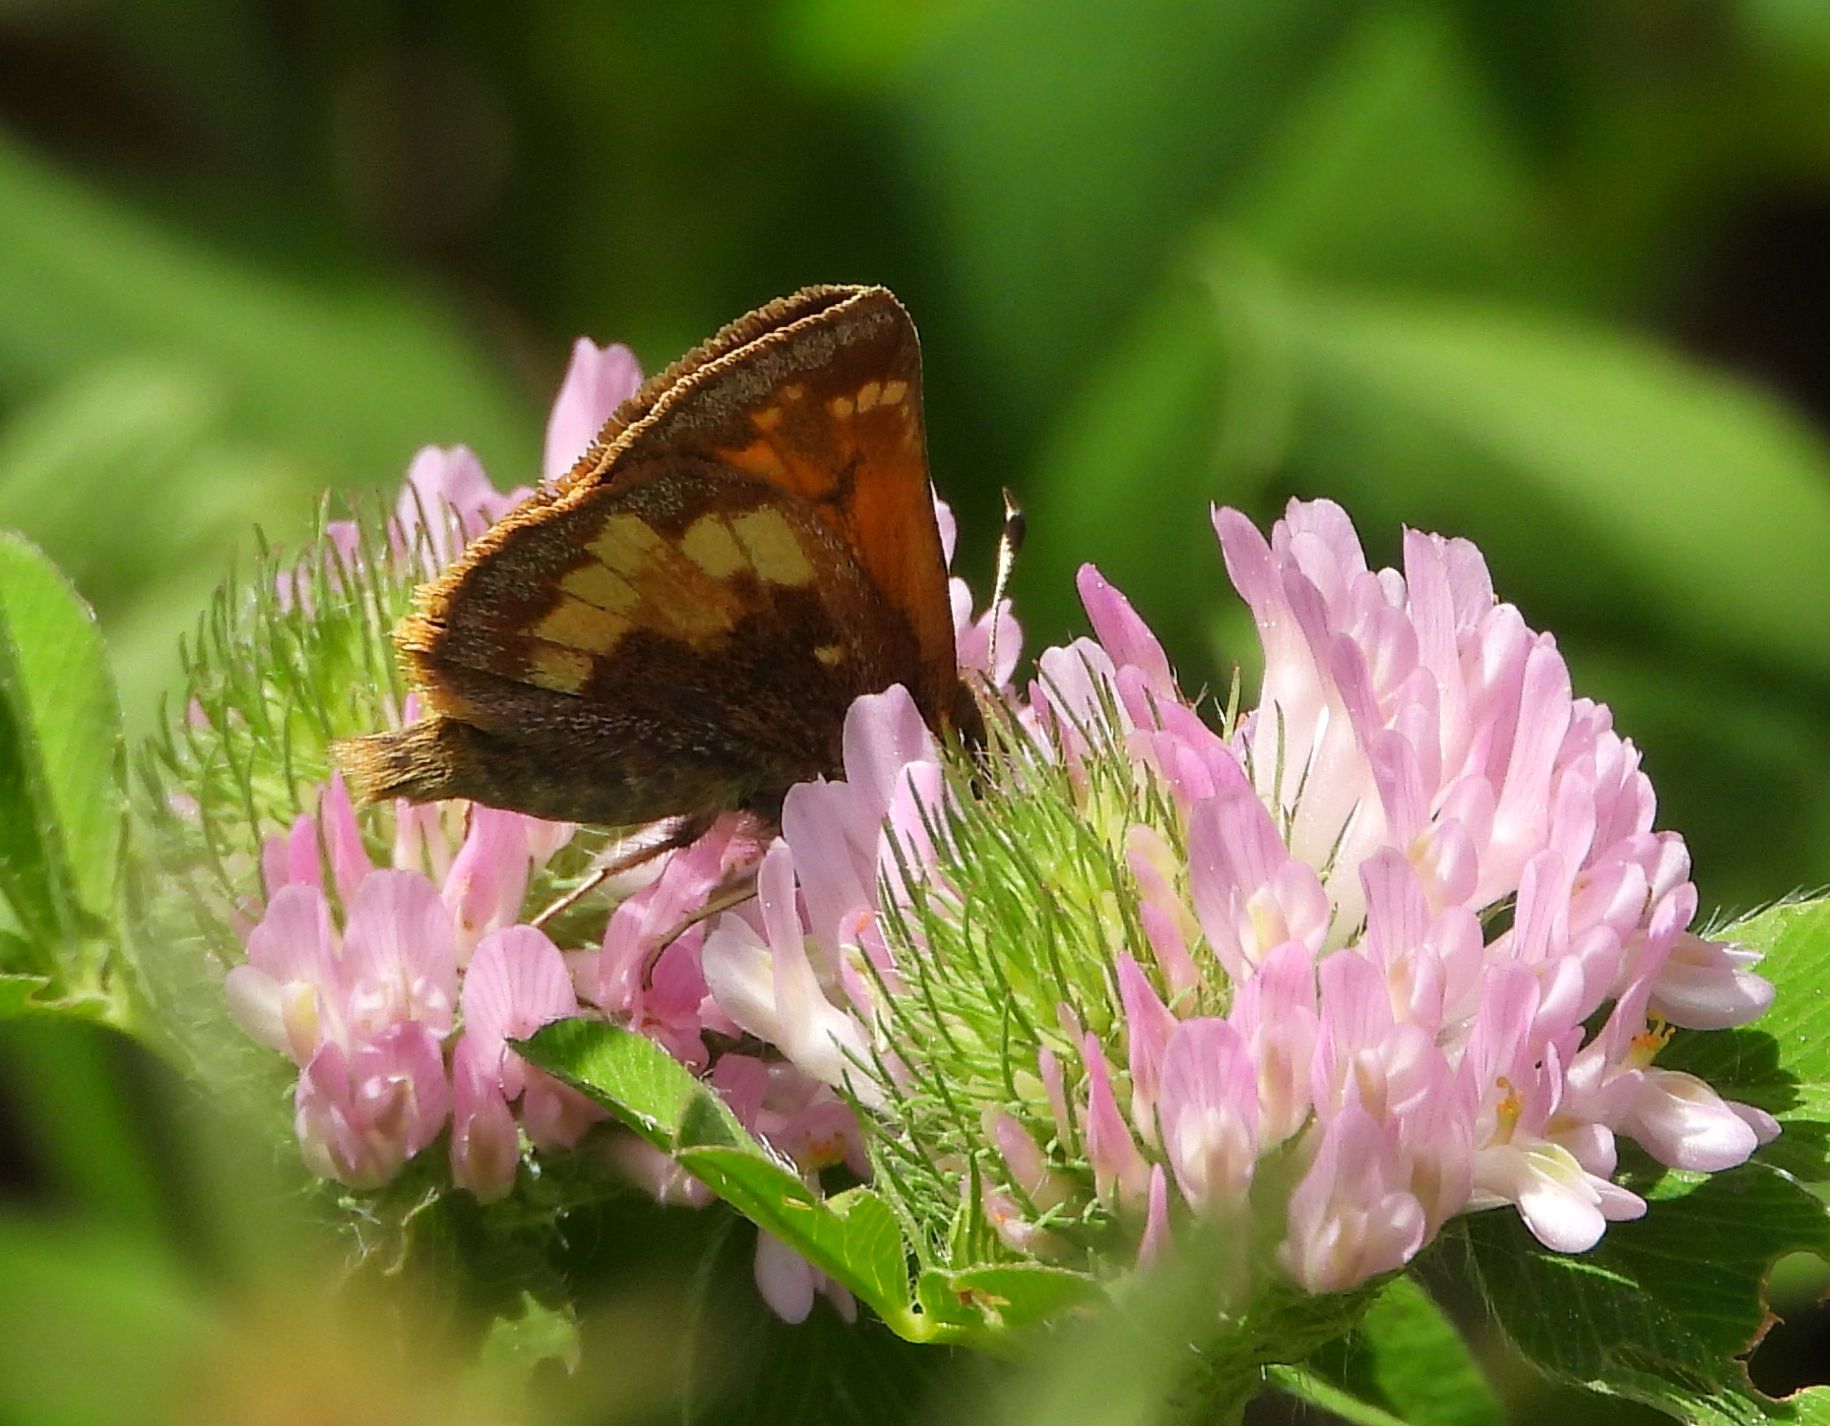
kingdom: Animalia
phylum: Arthropoda
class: Insecta
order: Lepidoptera
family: Hesperiidae
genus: Lon
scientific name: Lon hobomok
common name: Hobomok skipper
